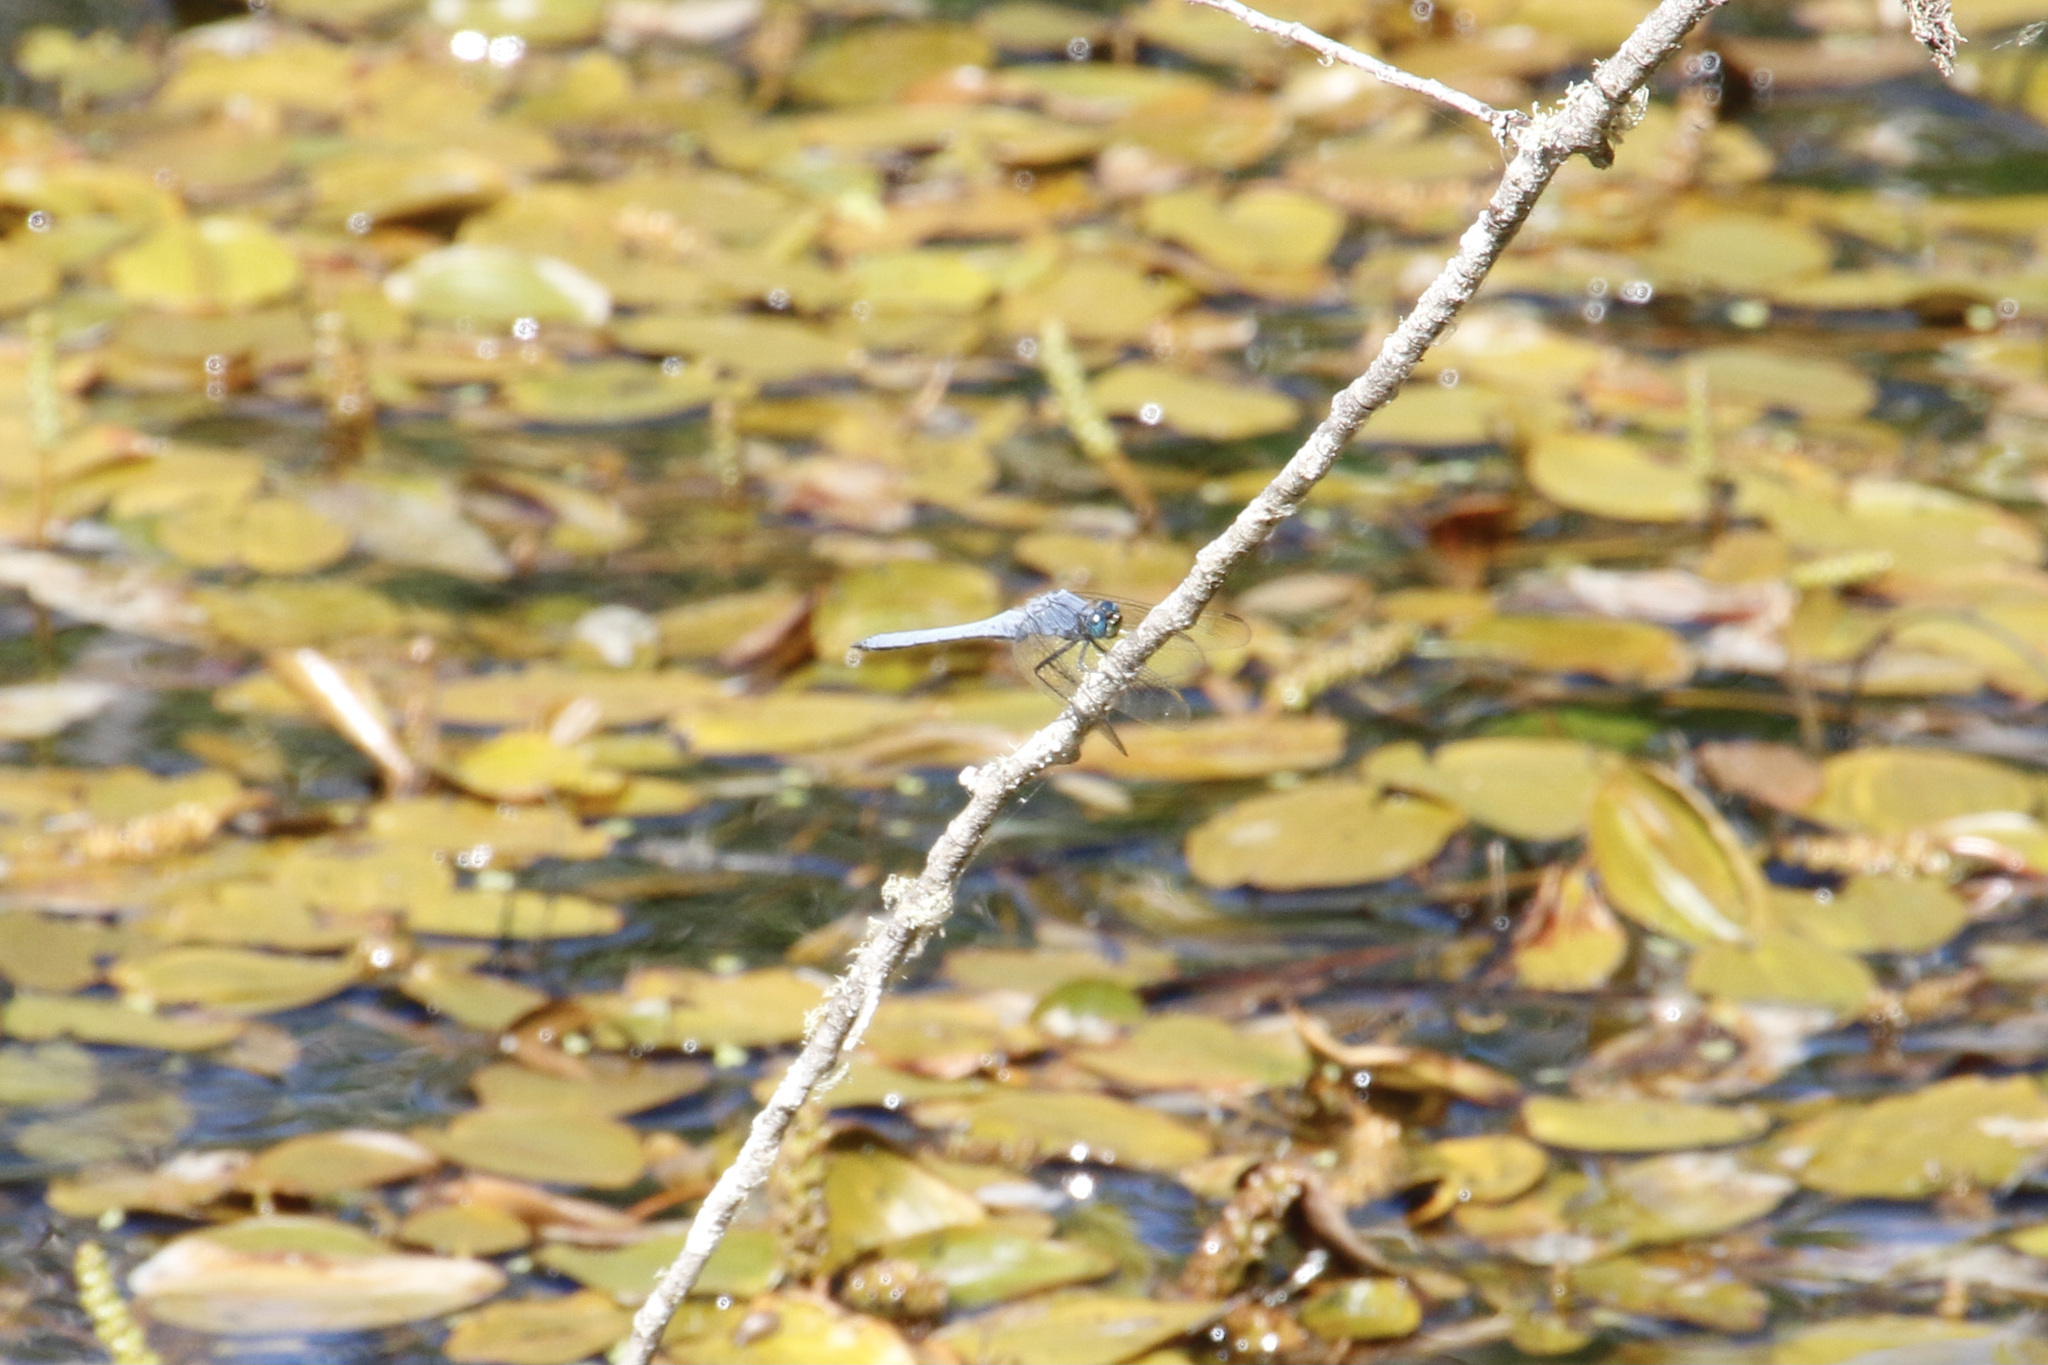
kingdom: Animalia
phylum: Arthropoda
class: Insecta
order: Odonata
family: Libellulidae
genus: Erythemis
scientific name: Erythemis collocata
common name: Western pondhawk
